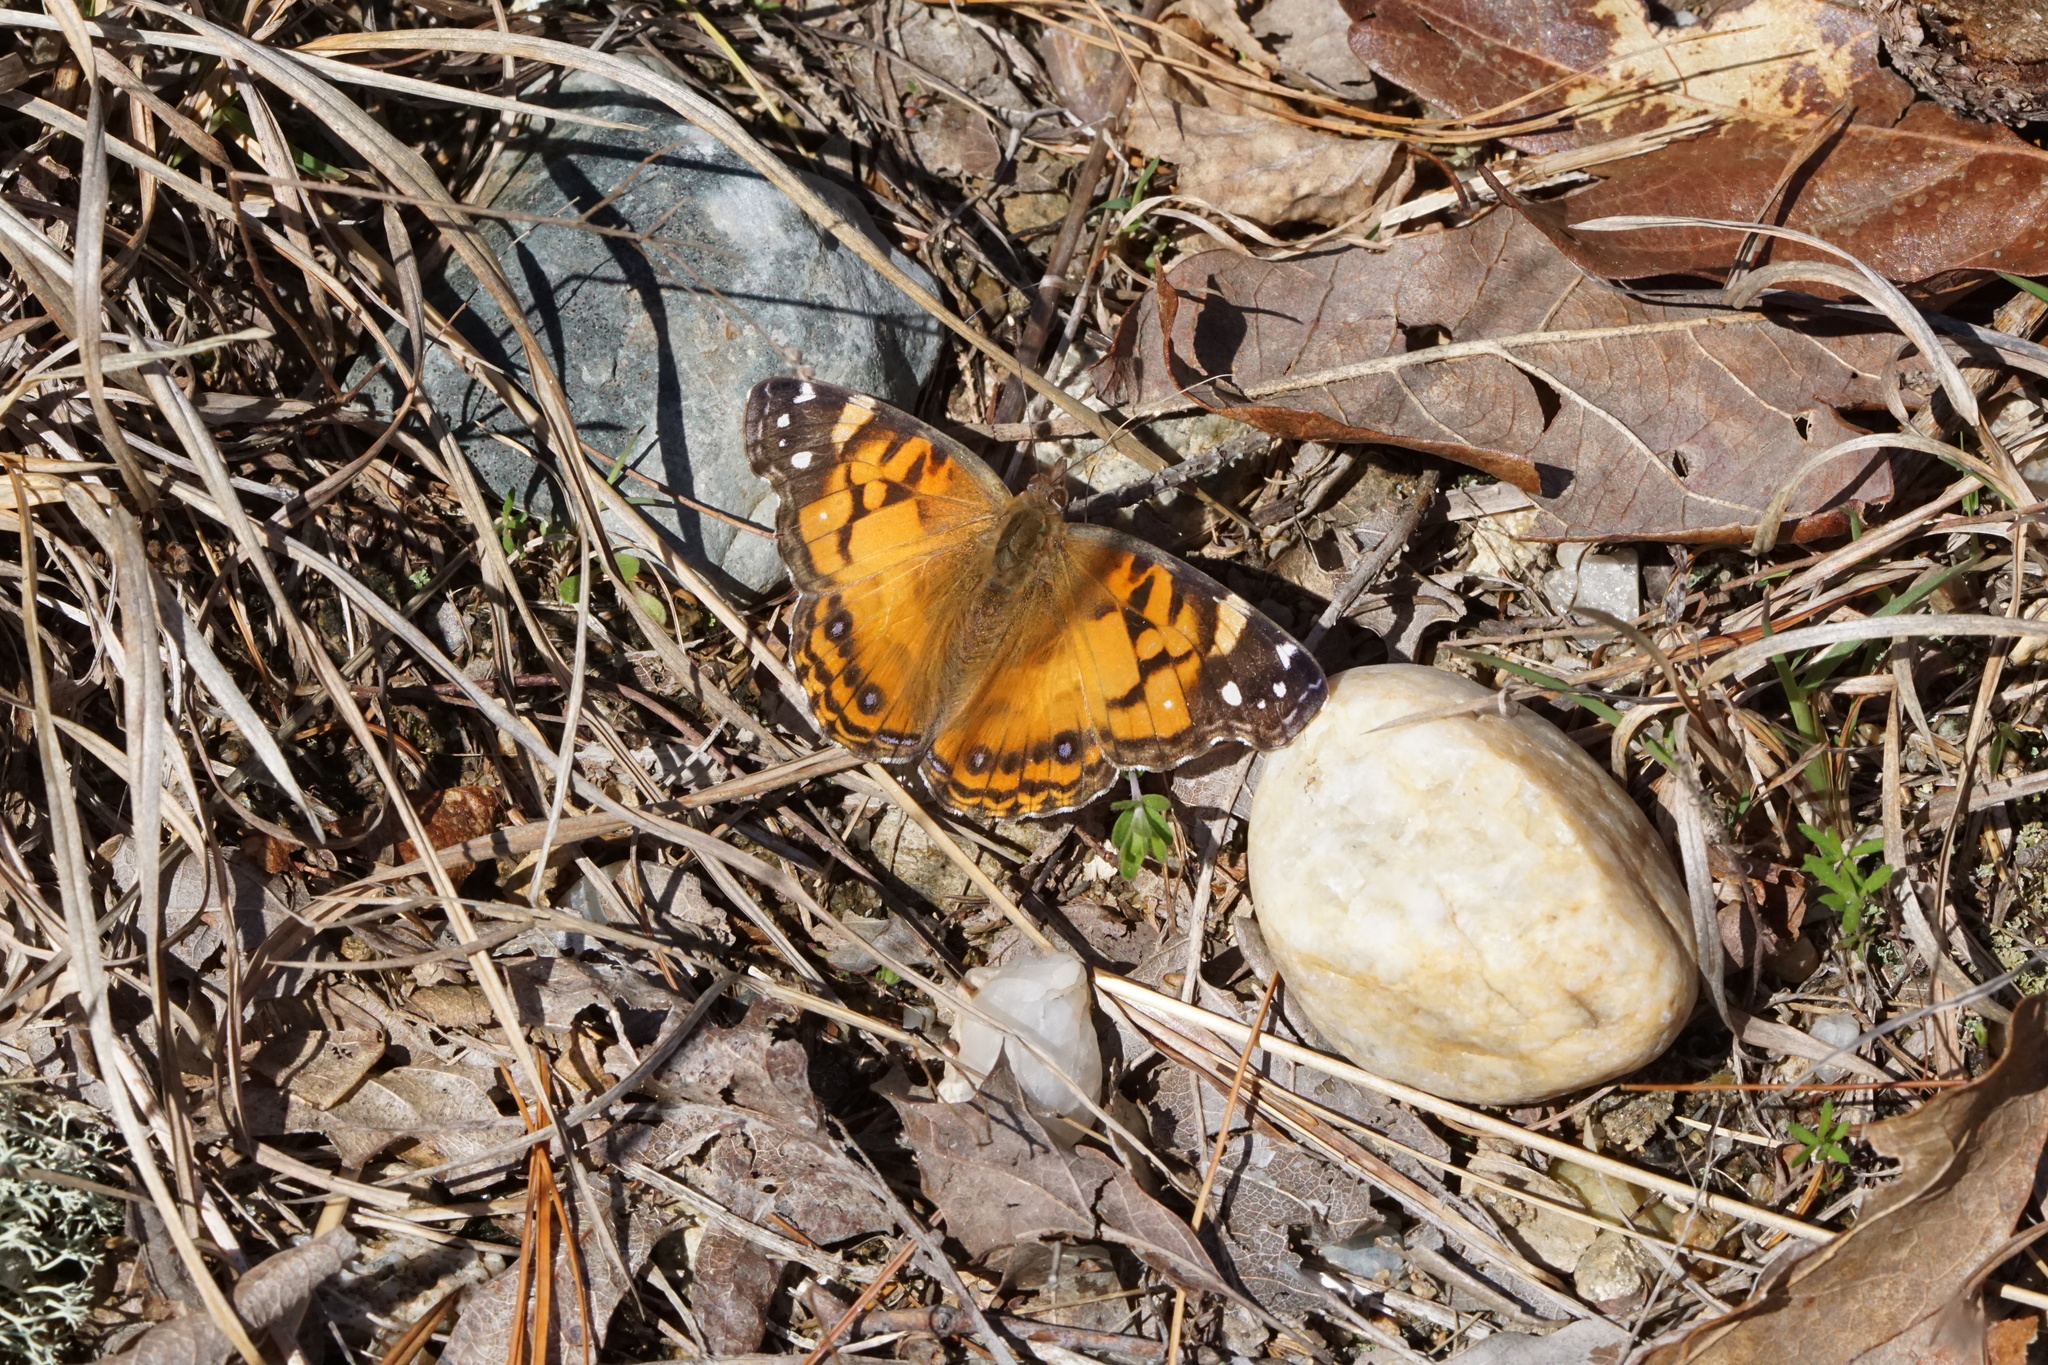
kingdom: Animalia
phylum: Arthropoda
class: Insecta
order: Lepidoptera
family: Nymphalidae
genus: Vanessa
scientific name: Vanessa virginiensis
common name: American lady
